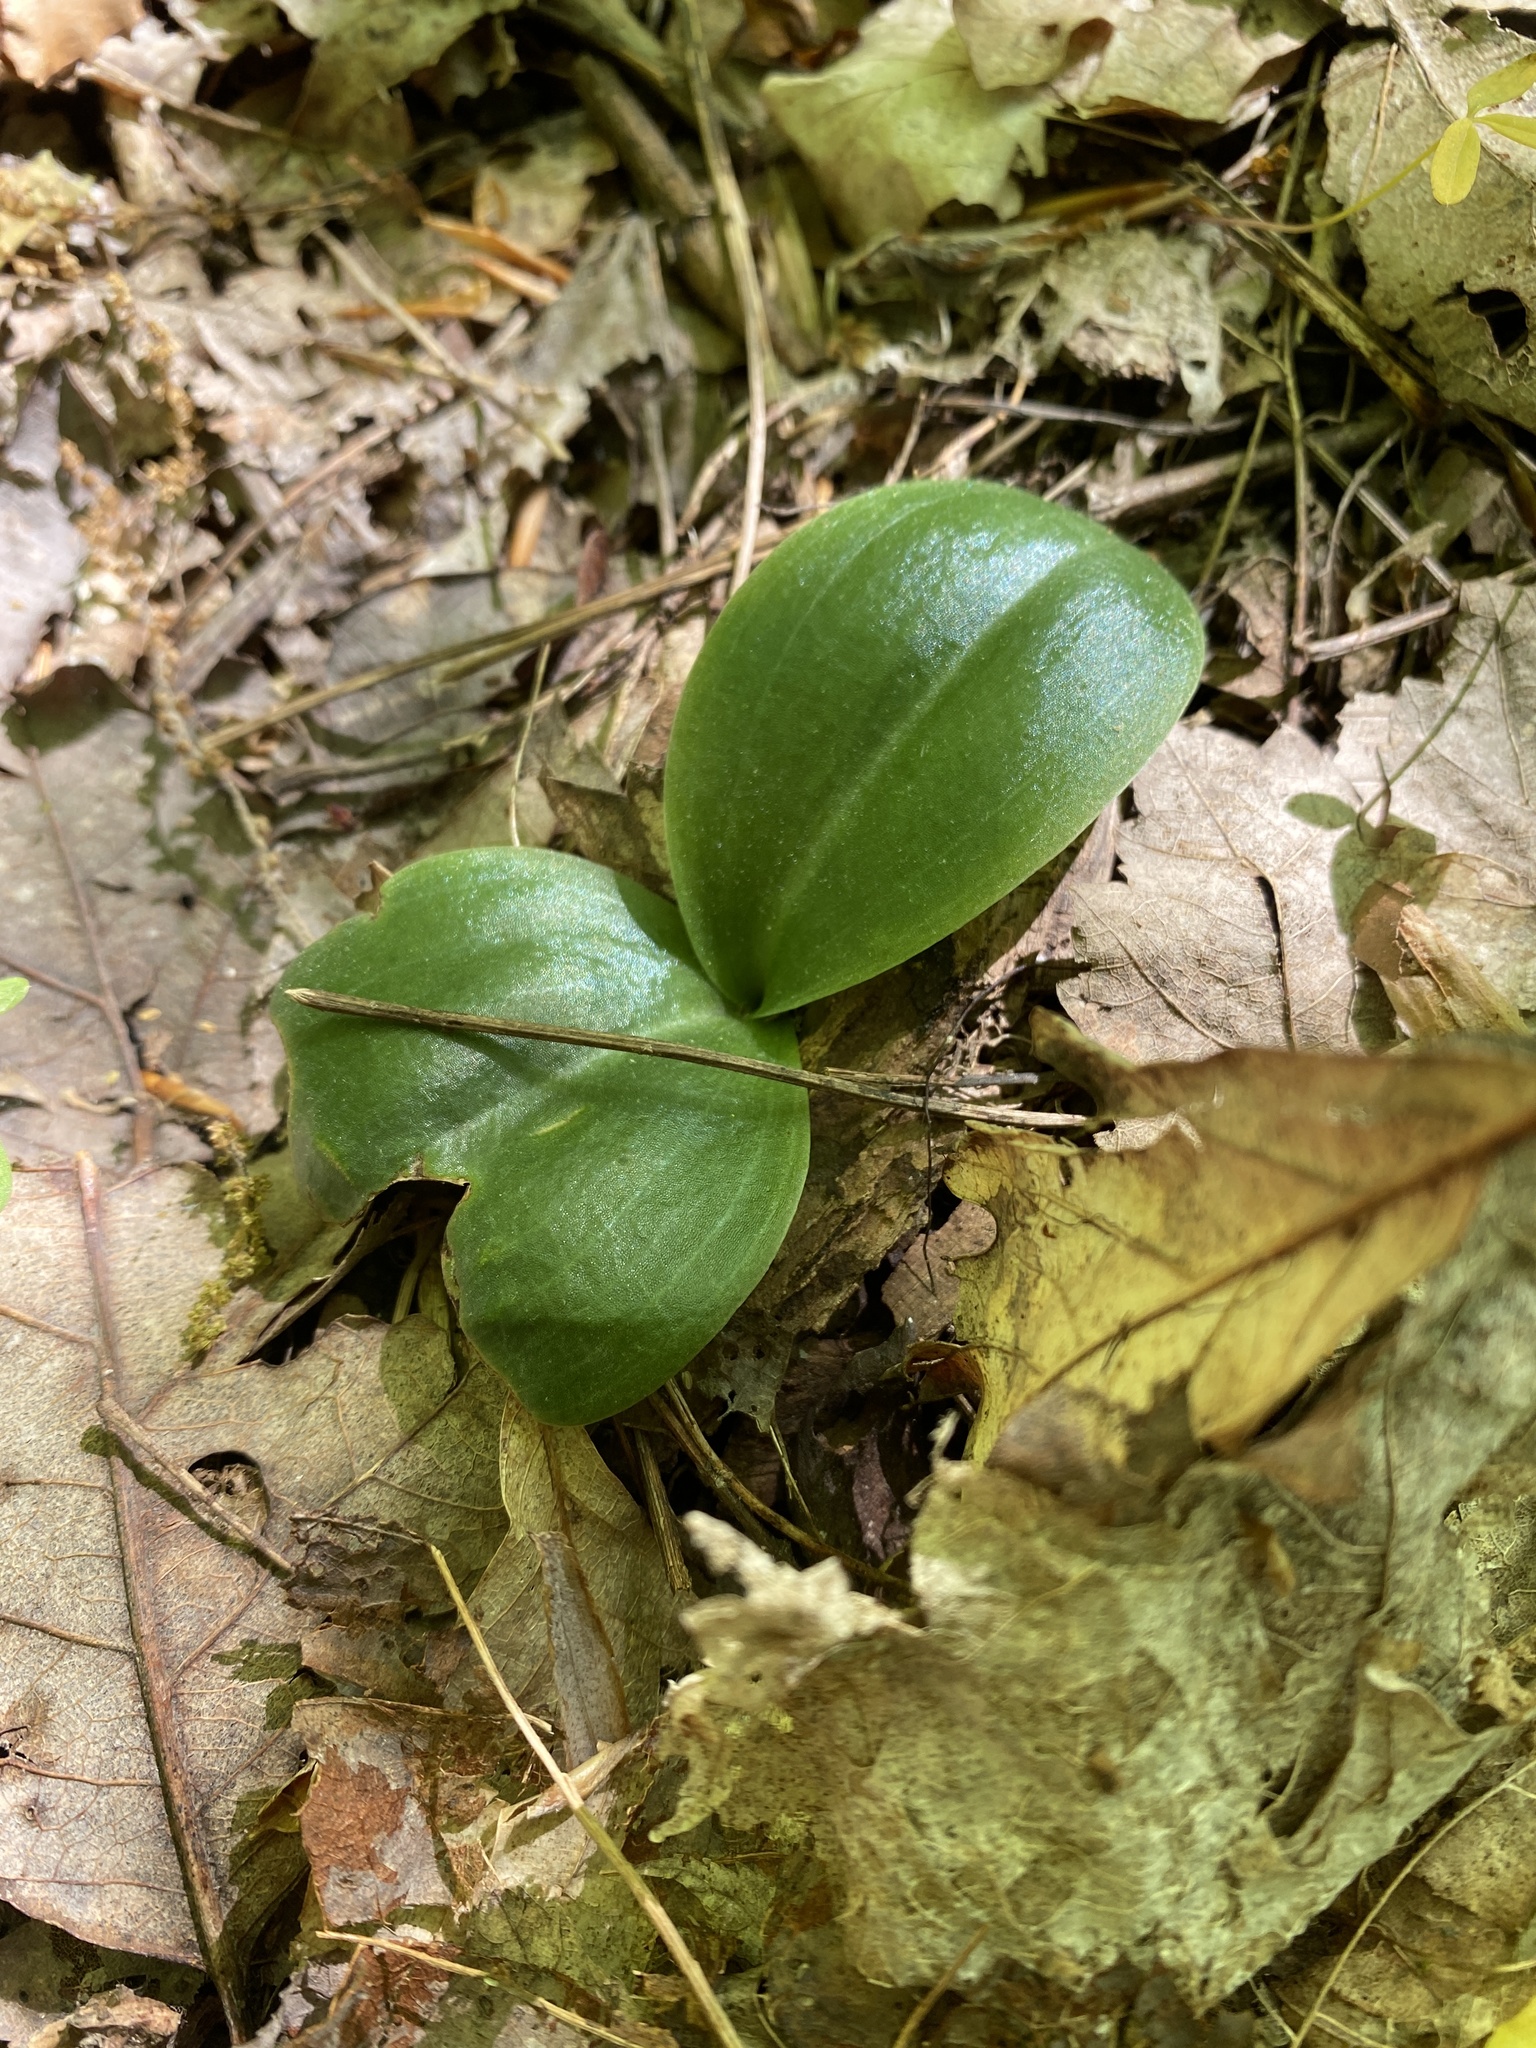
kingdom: Plantae
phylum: Tracheophyta
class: Liliopsida
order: Asparagales
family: Orchidaceae
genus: Platanthera
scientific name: Platanthera orbiculata
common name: Large round-leaved orchid
